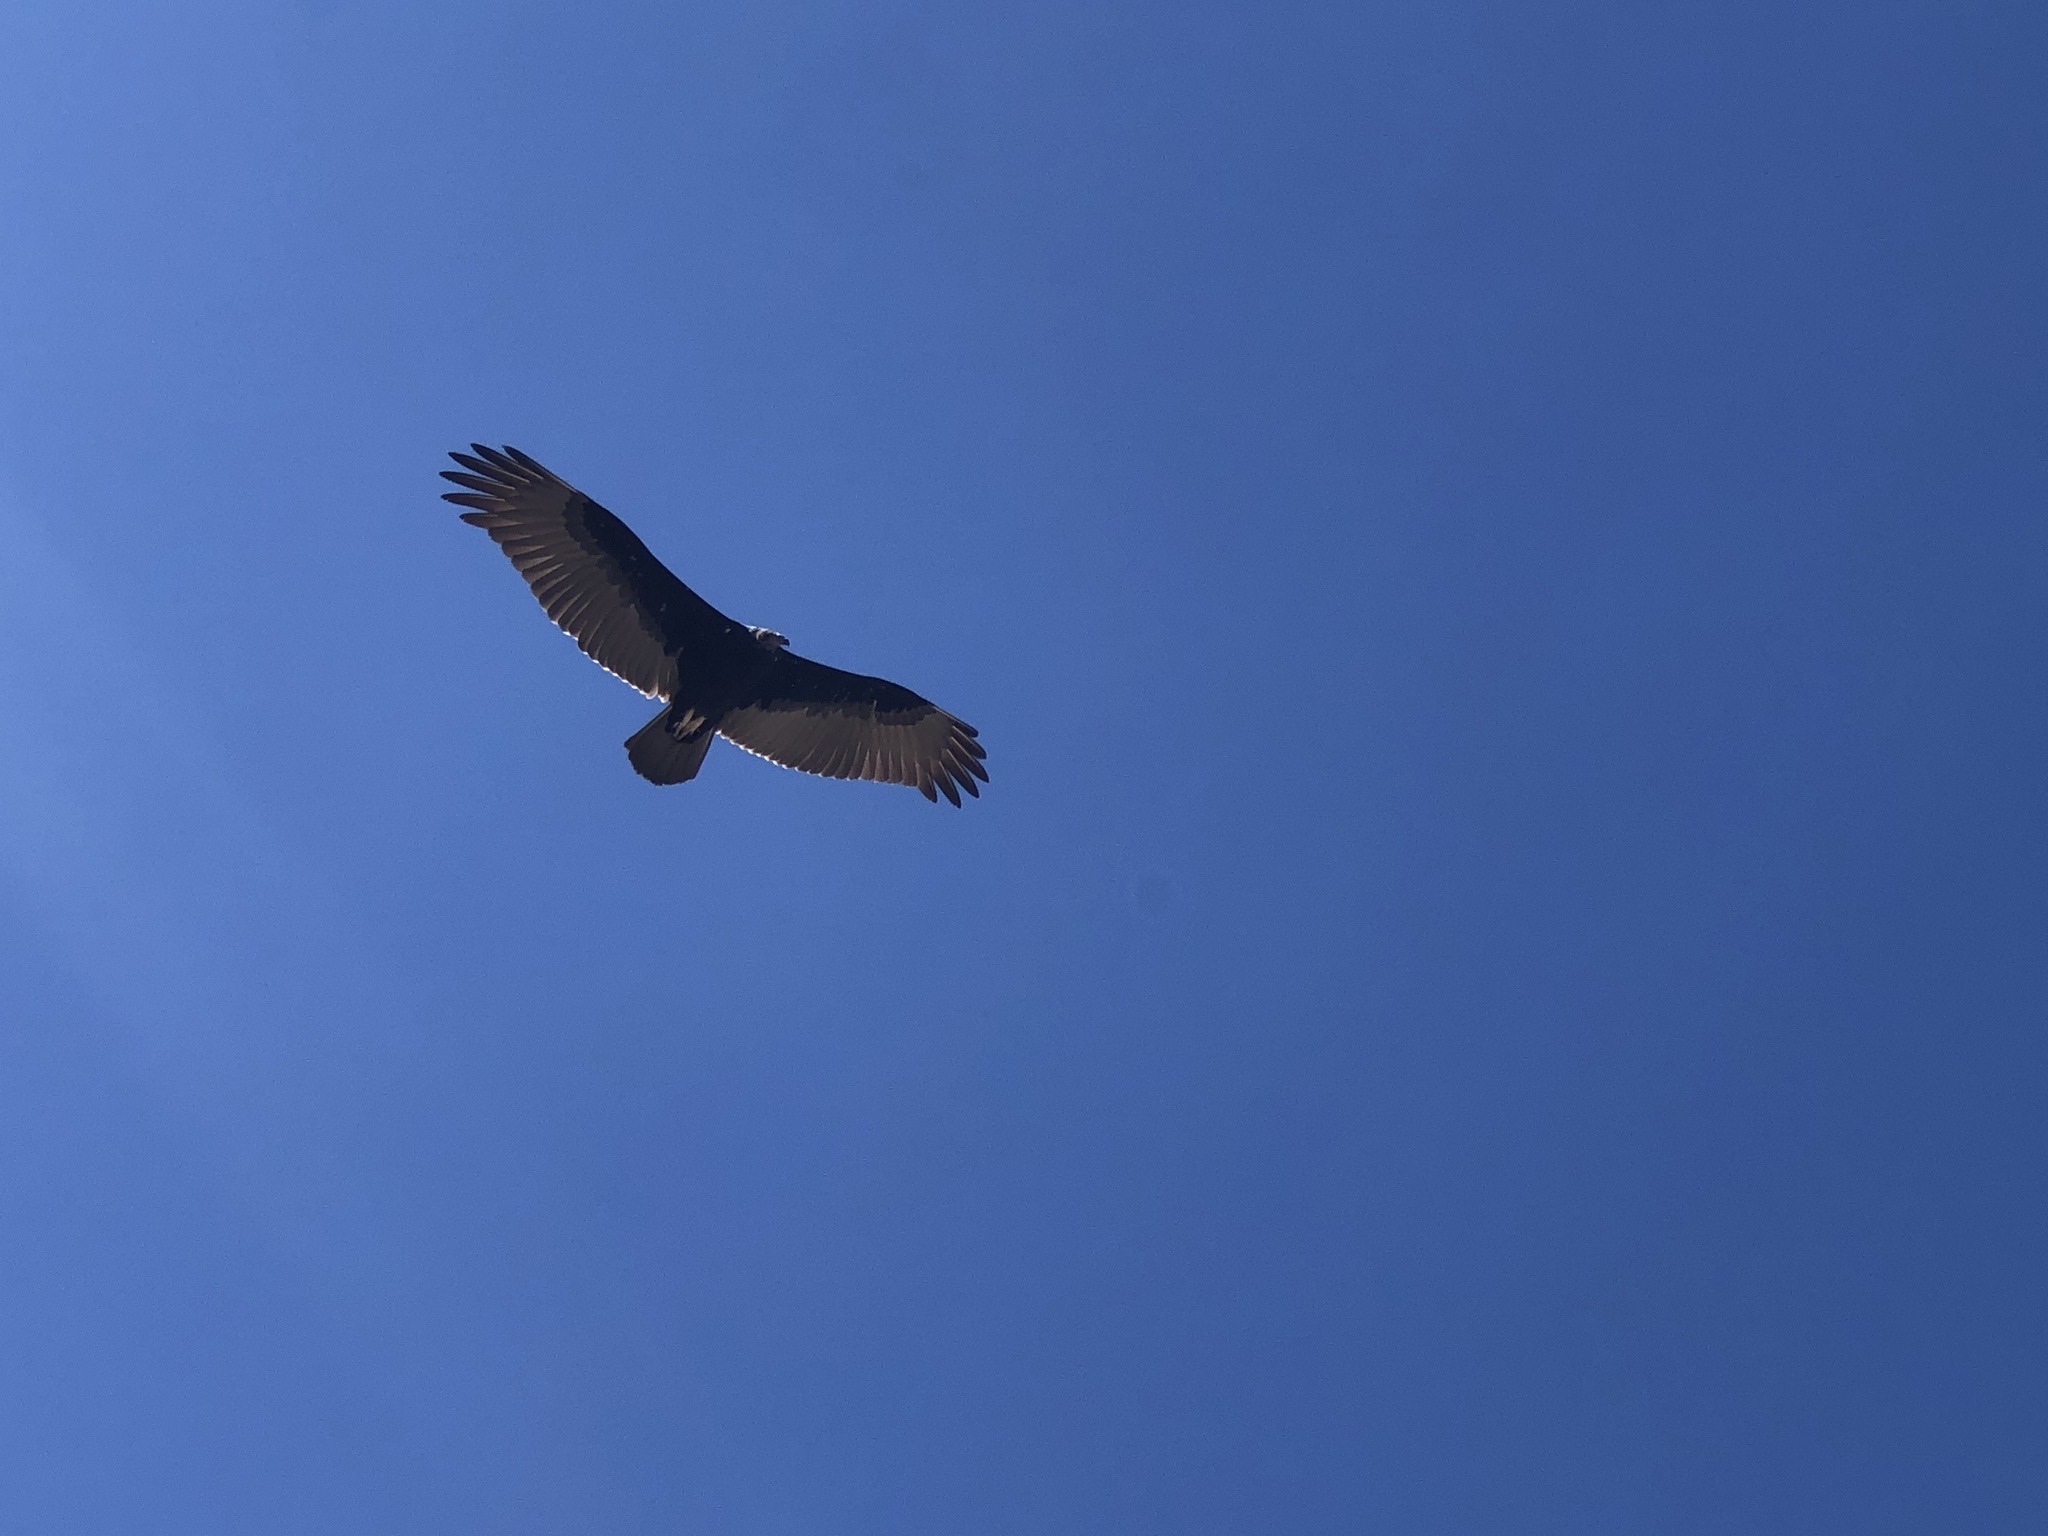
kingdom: Animalia
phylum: Chordata
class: Aves
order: Accipitriformes
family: Cathartidae
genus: Cathartes
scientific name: Cathartes aura
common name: Turkey vulture
